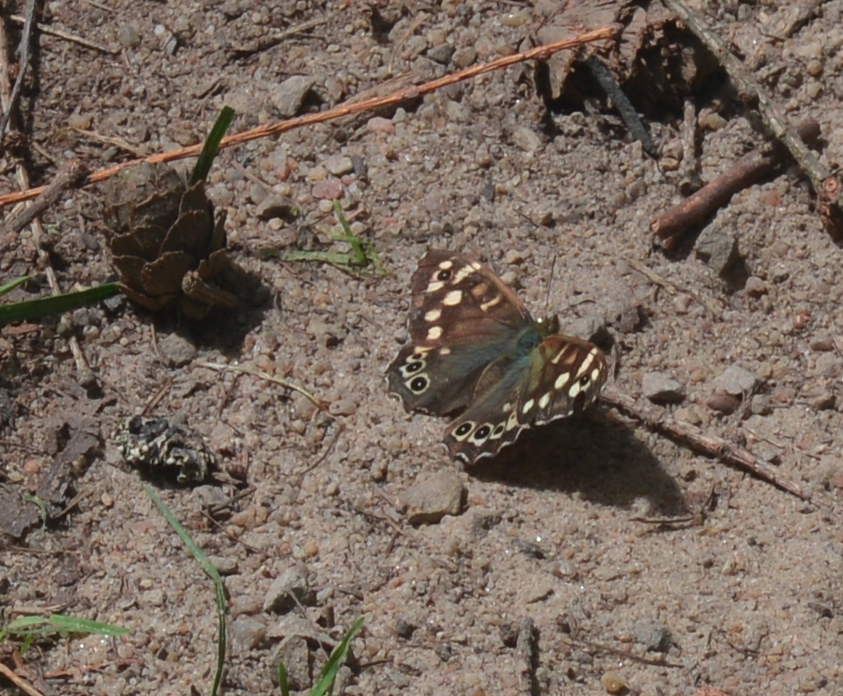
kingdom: Animalia
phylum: Arthropoda
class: Insecta
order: Lepidoptera
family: Nymphalidae
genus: Pararge
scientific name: Pararge aegeria
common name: Speckled wood
